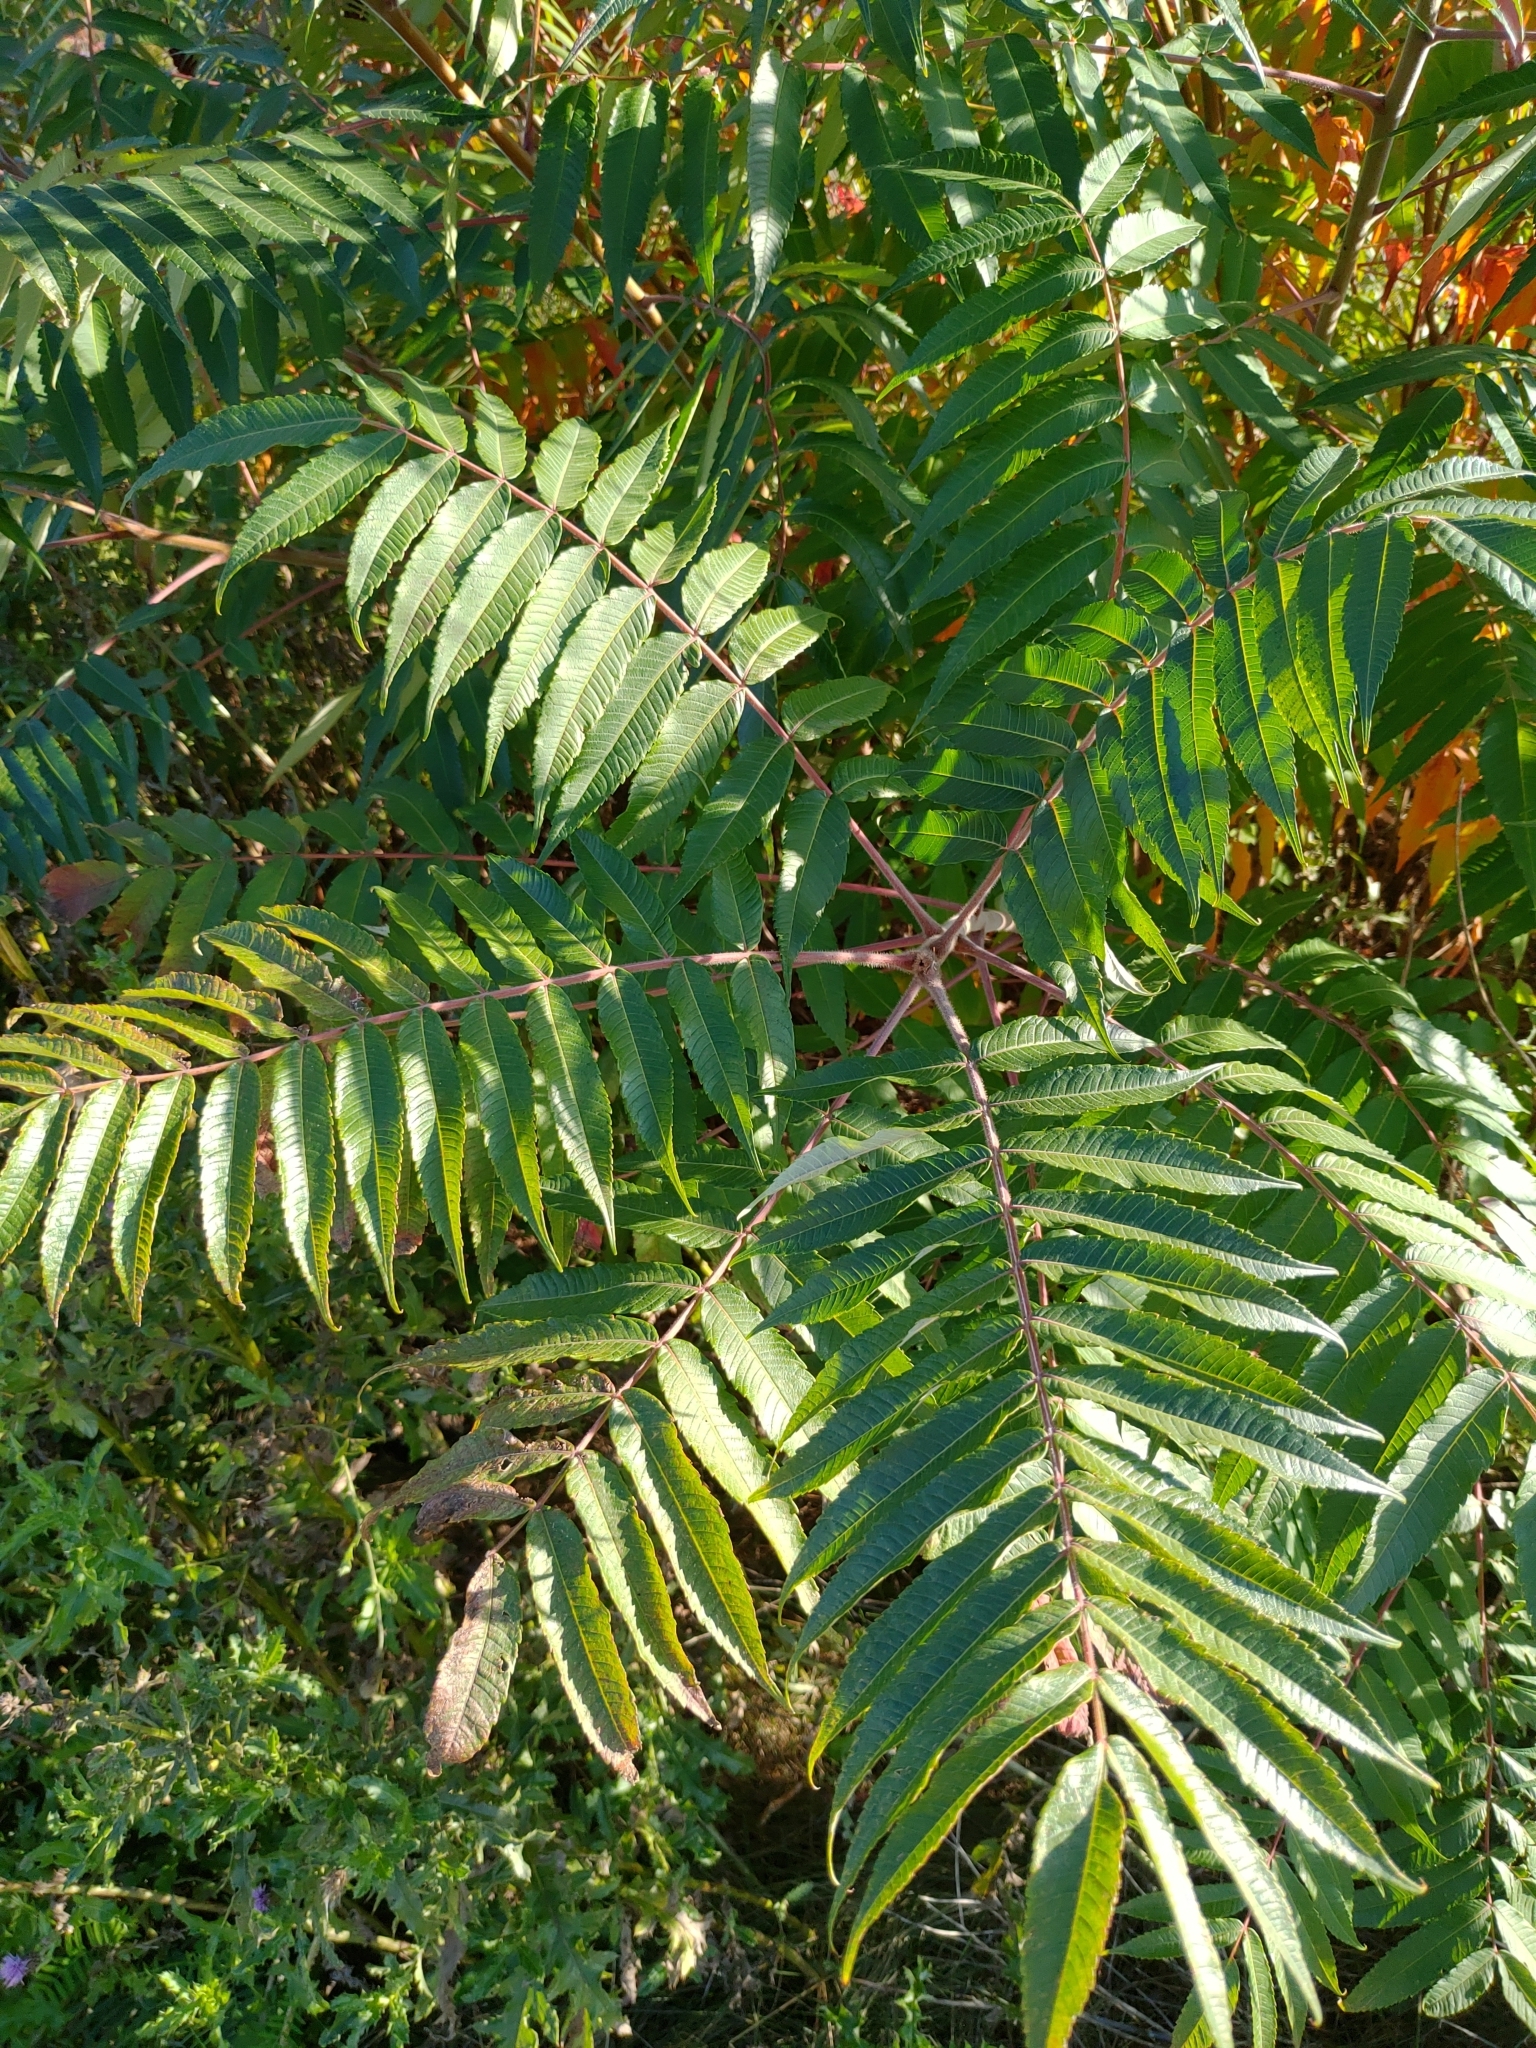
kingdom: Plantae
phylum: Tracheophyta
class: Magnoliopsida
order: Sapindales
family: Anacardiaceae
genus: Rhus
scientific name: Rhus typhina
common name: Staghorn sumac
